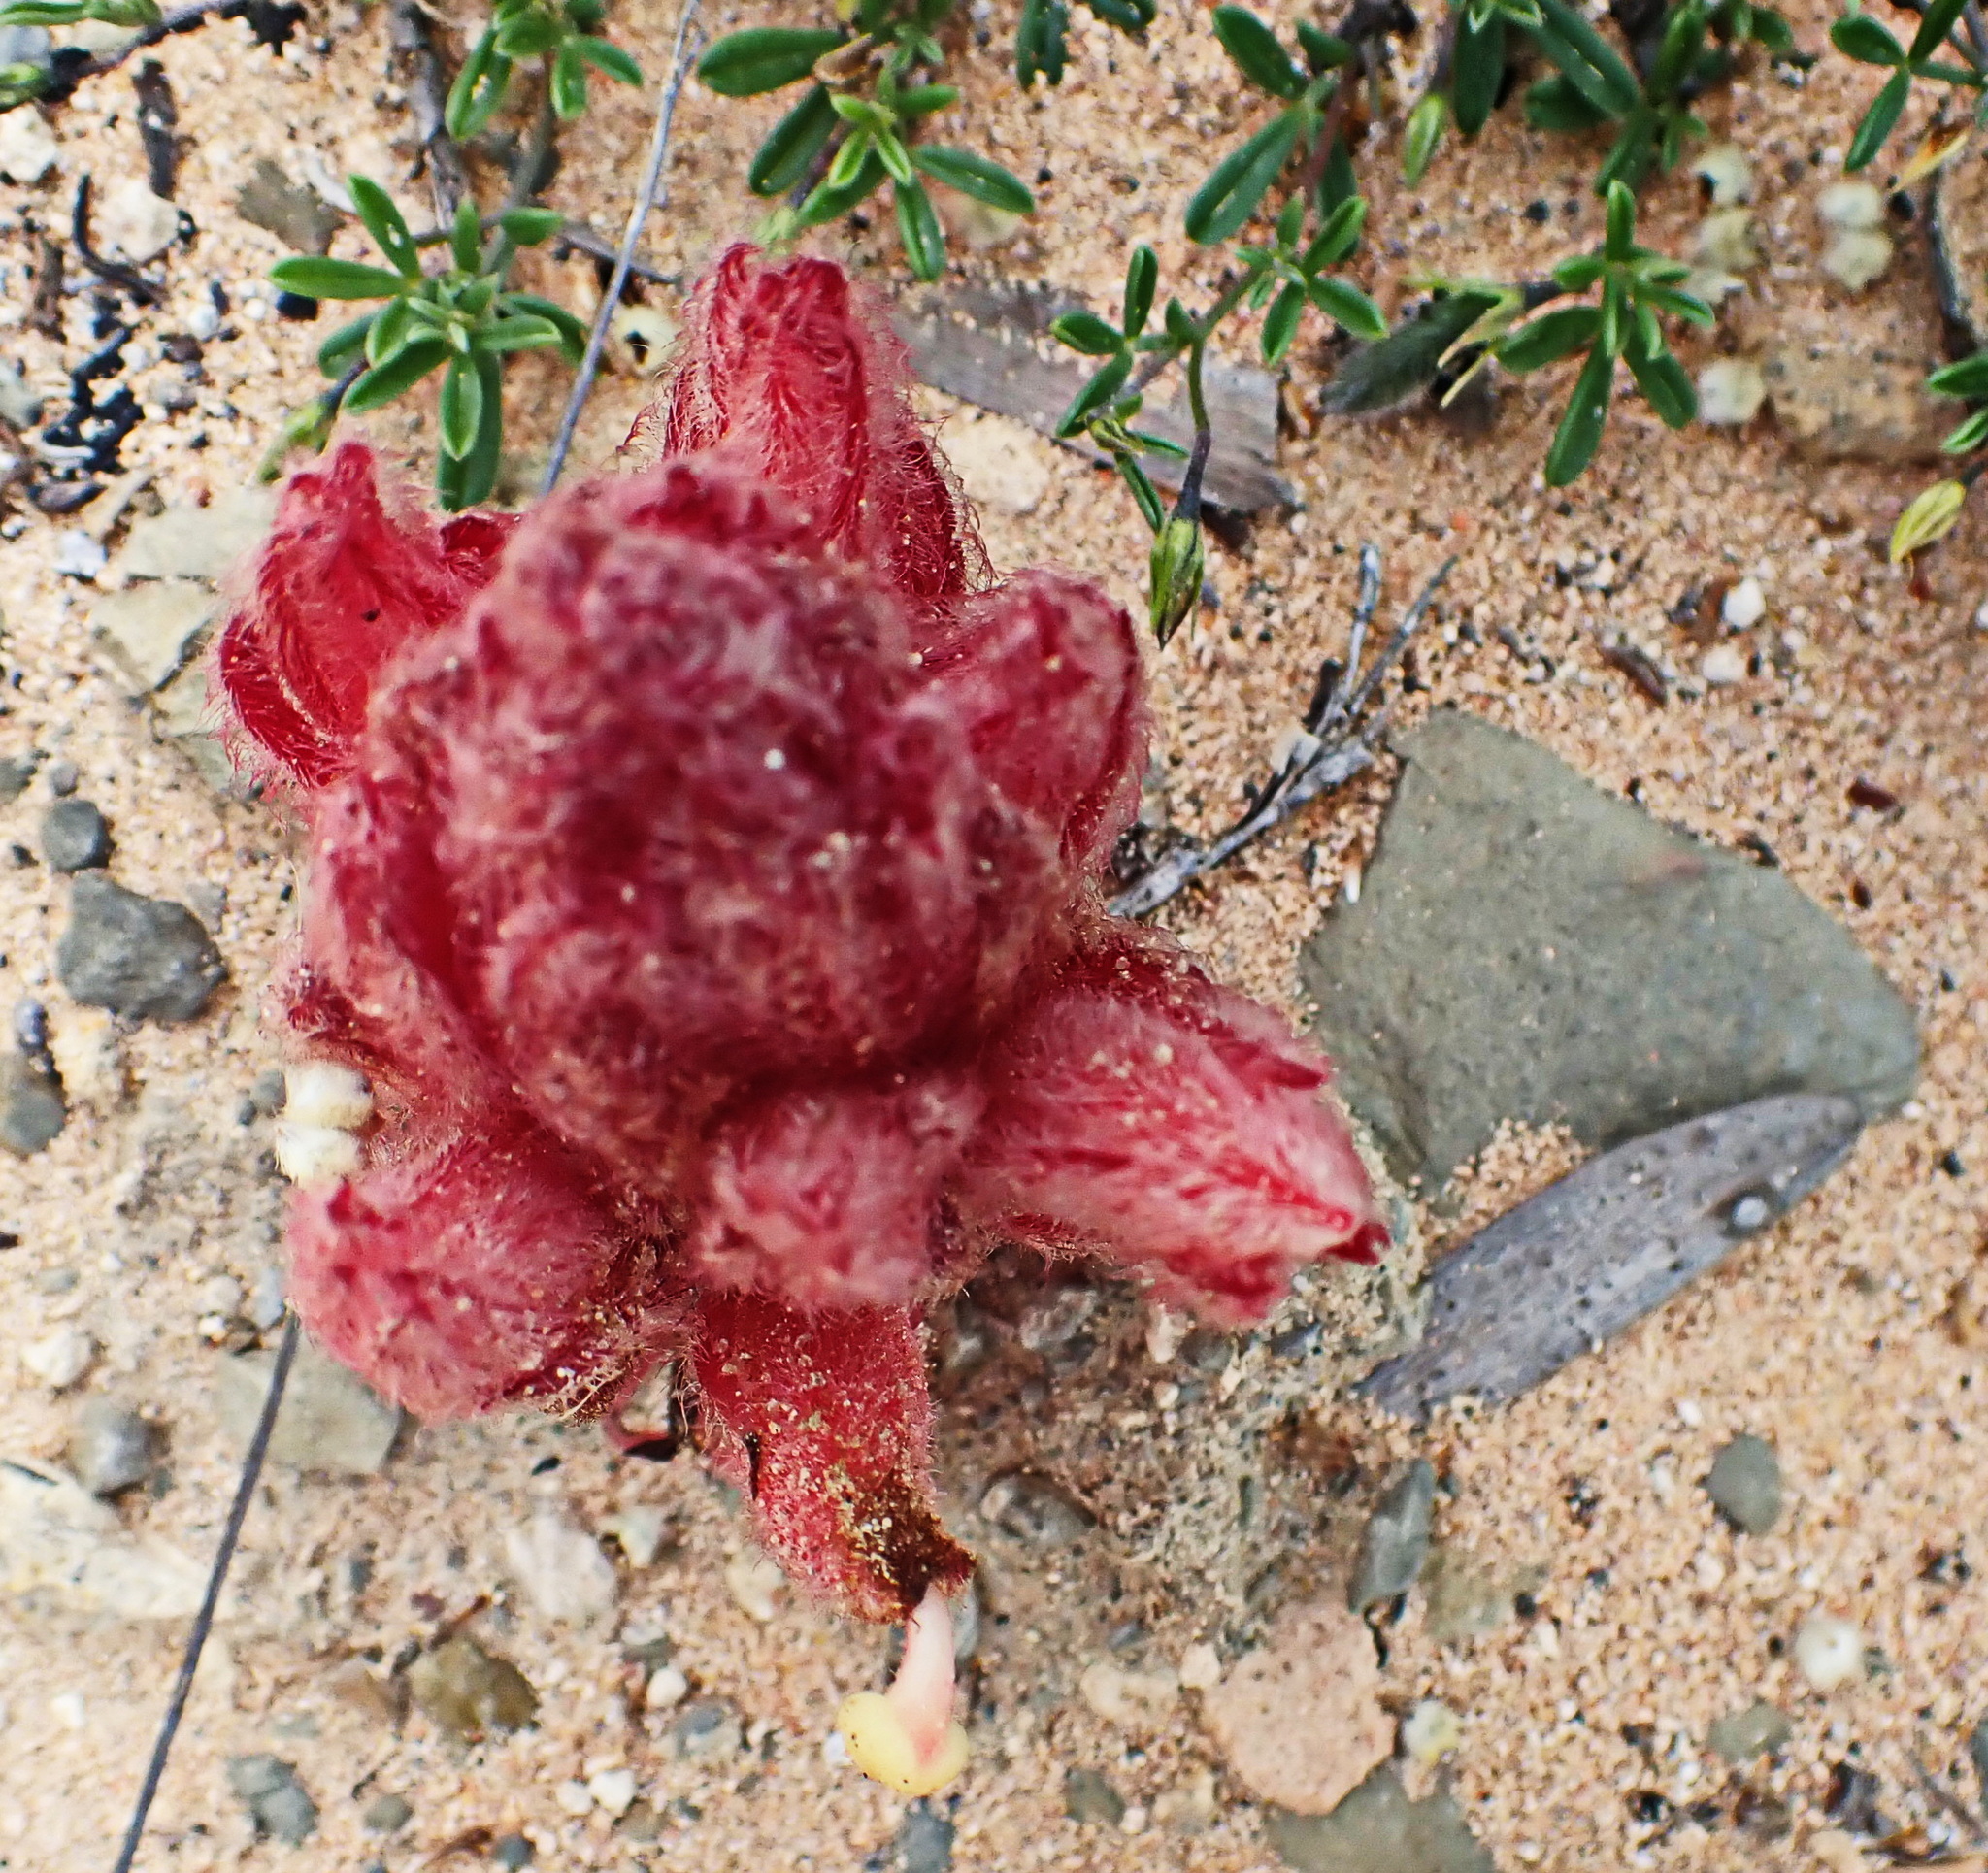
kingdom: Plantae
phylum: Tracheophyta
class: Magnoliopsida
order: Lamiales
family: Orobanchaceae
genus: Hyobanche
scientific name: Hyobanche sanguinea
